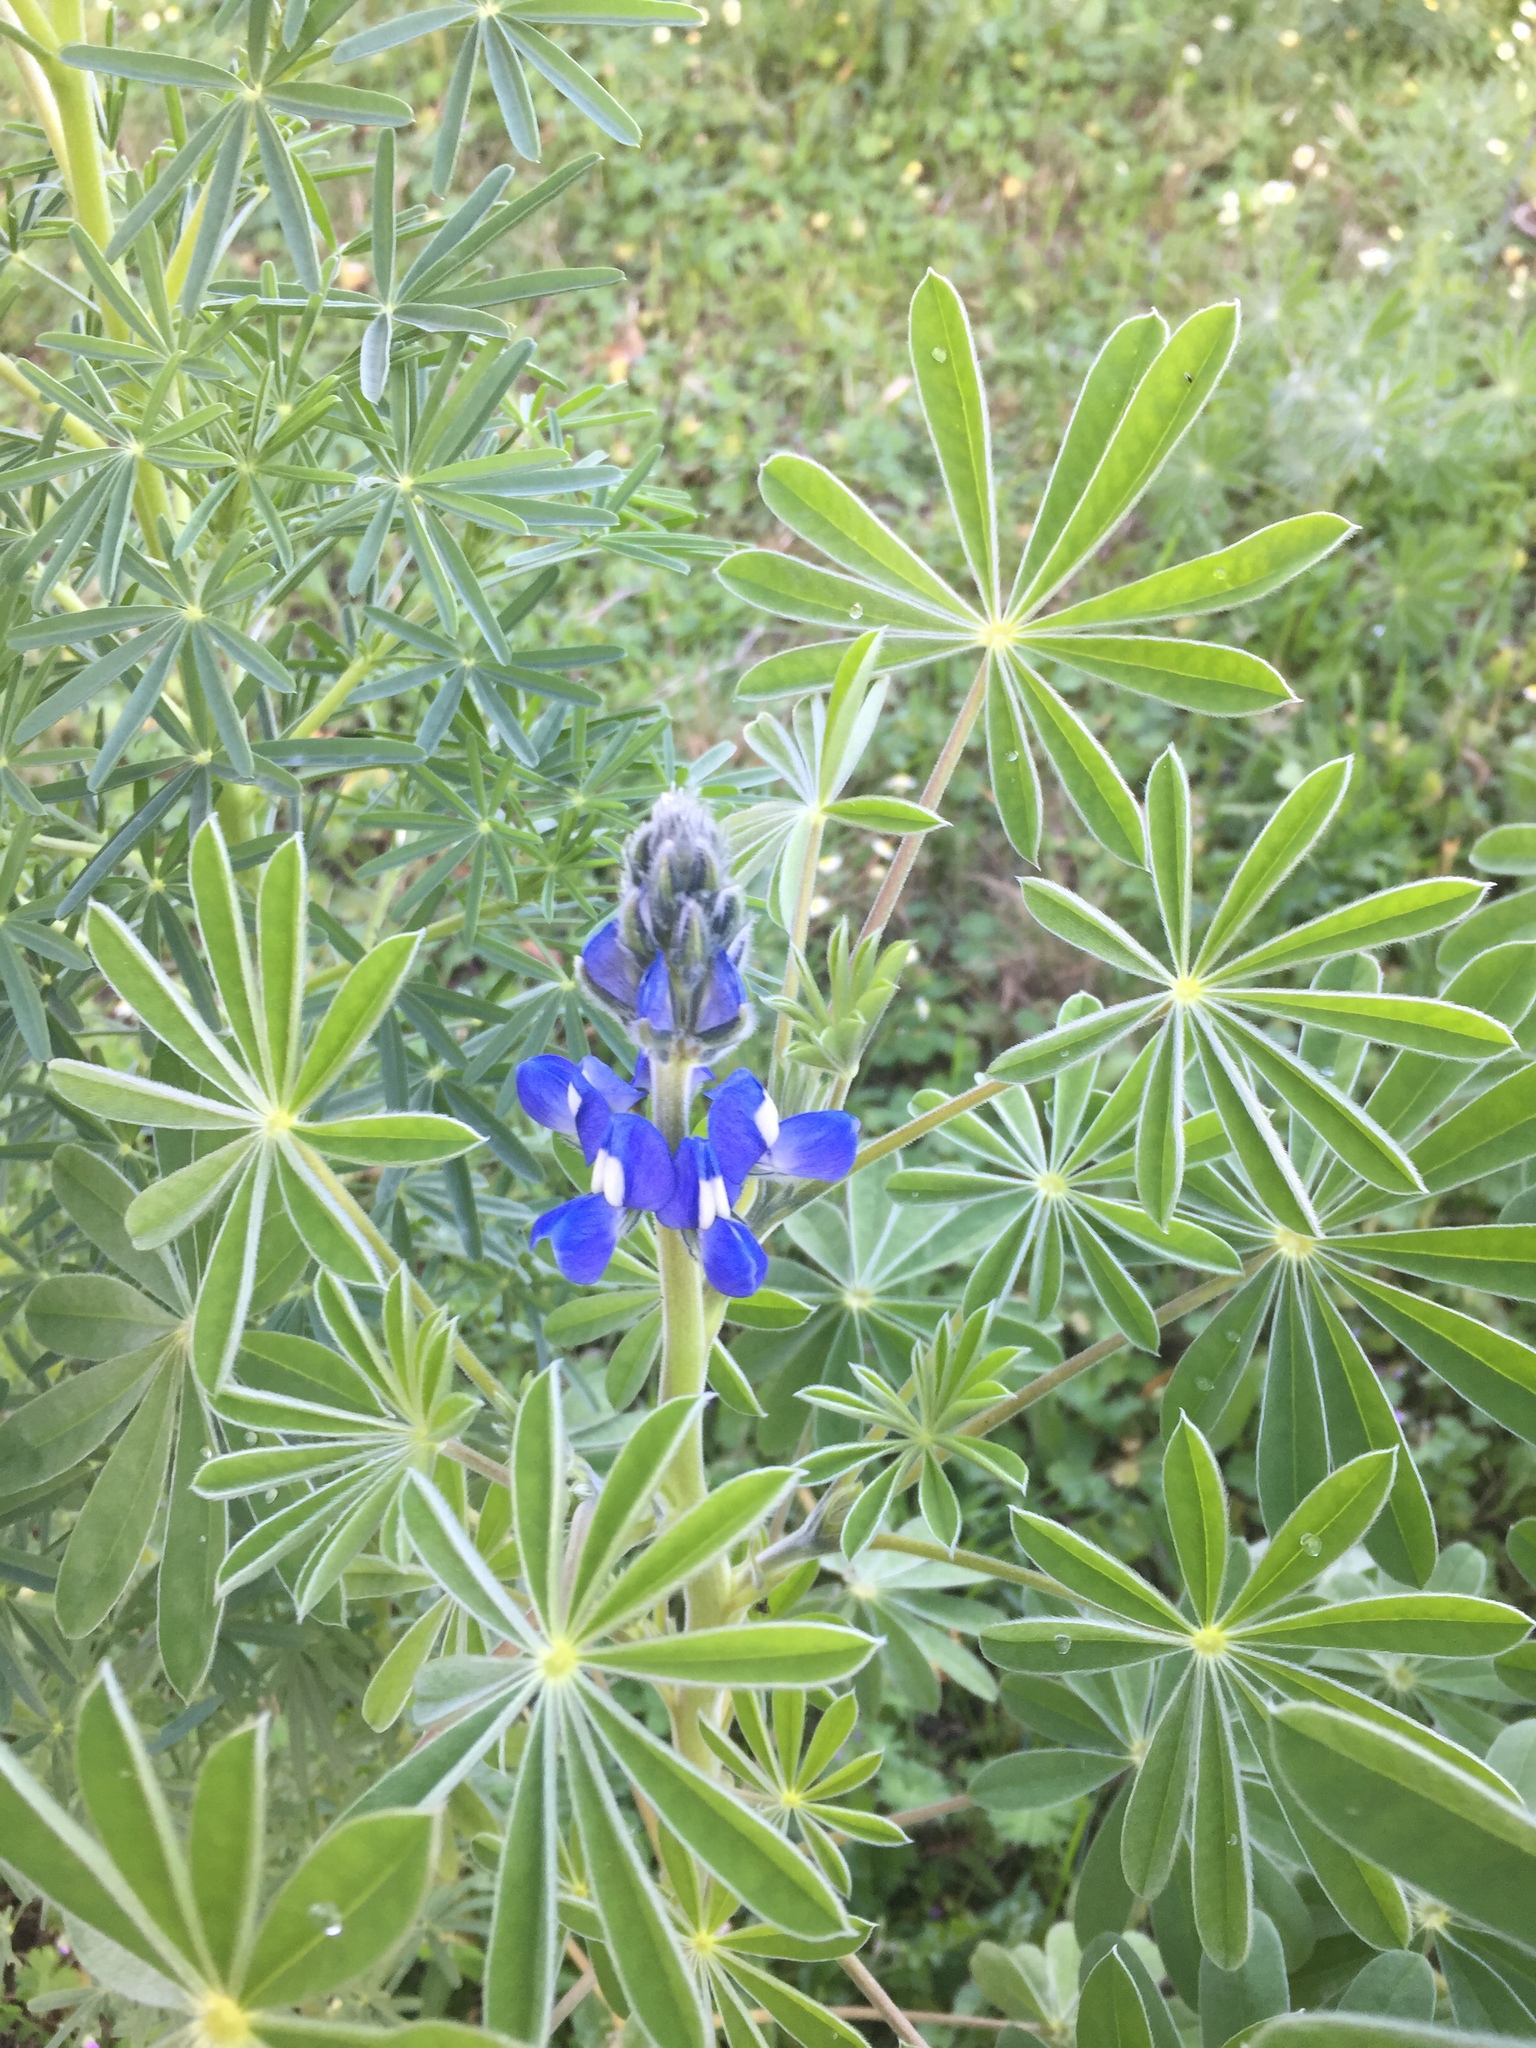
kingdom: Plantae
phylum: Tracheophyta
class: Magnoliopsida
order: Fabales
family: Fabaceae
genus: Lupinus
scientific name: Lupinus cosentinii
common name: Hairy blue lupin
